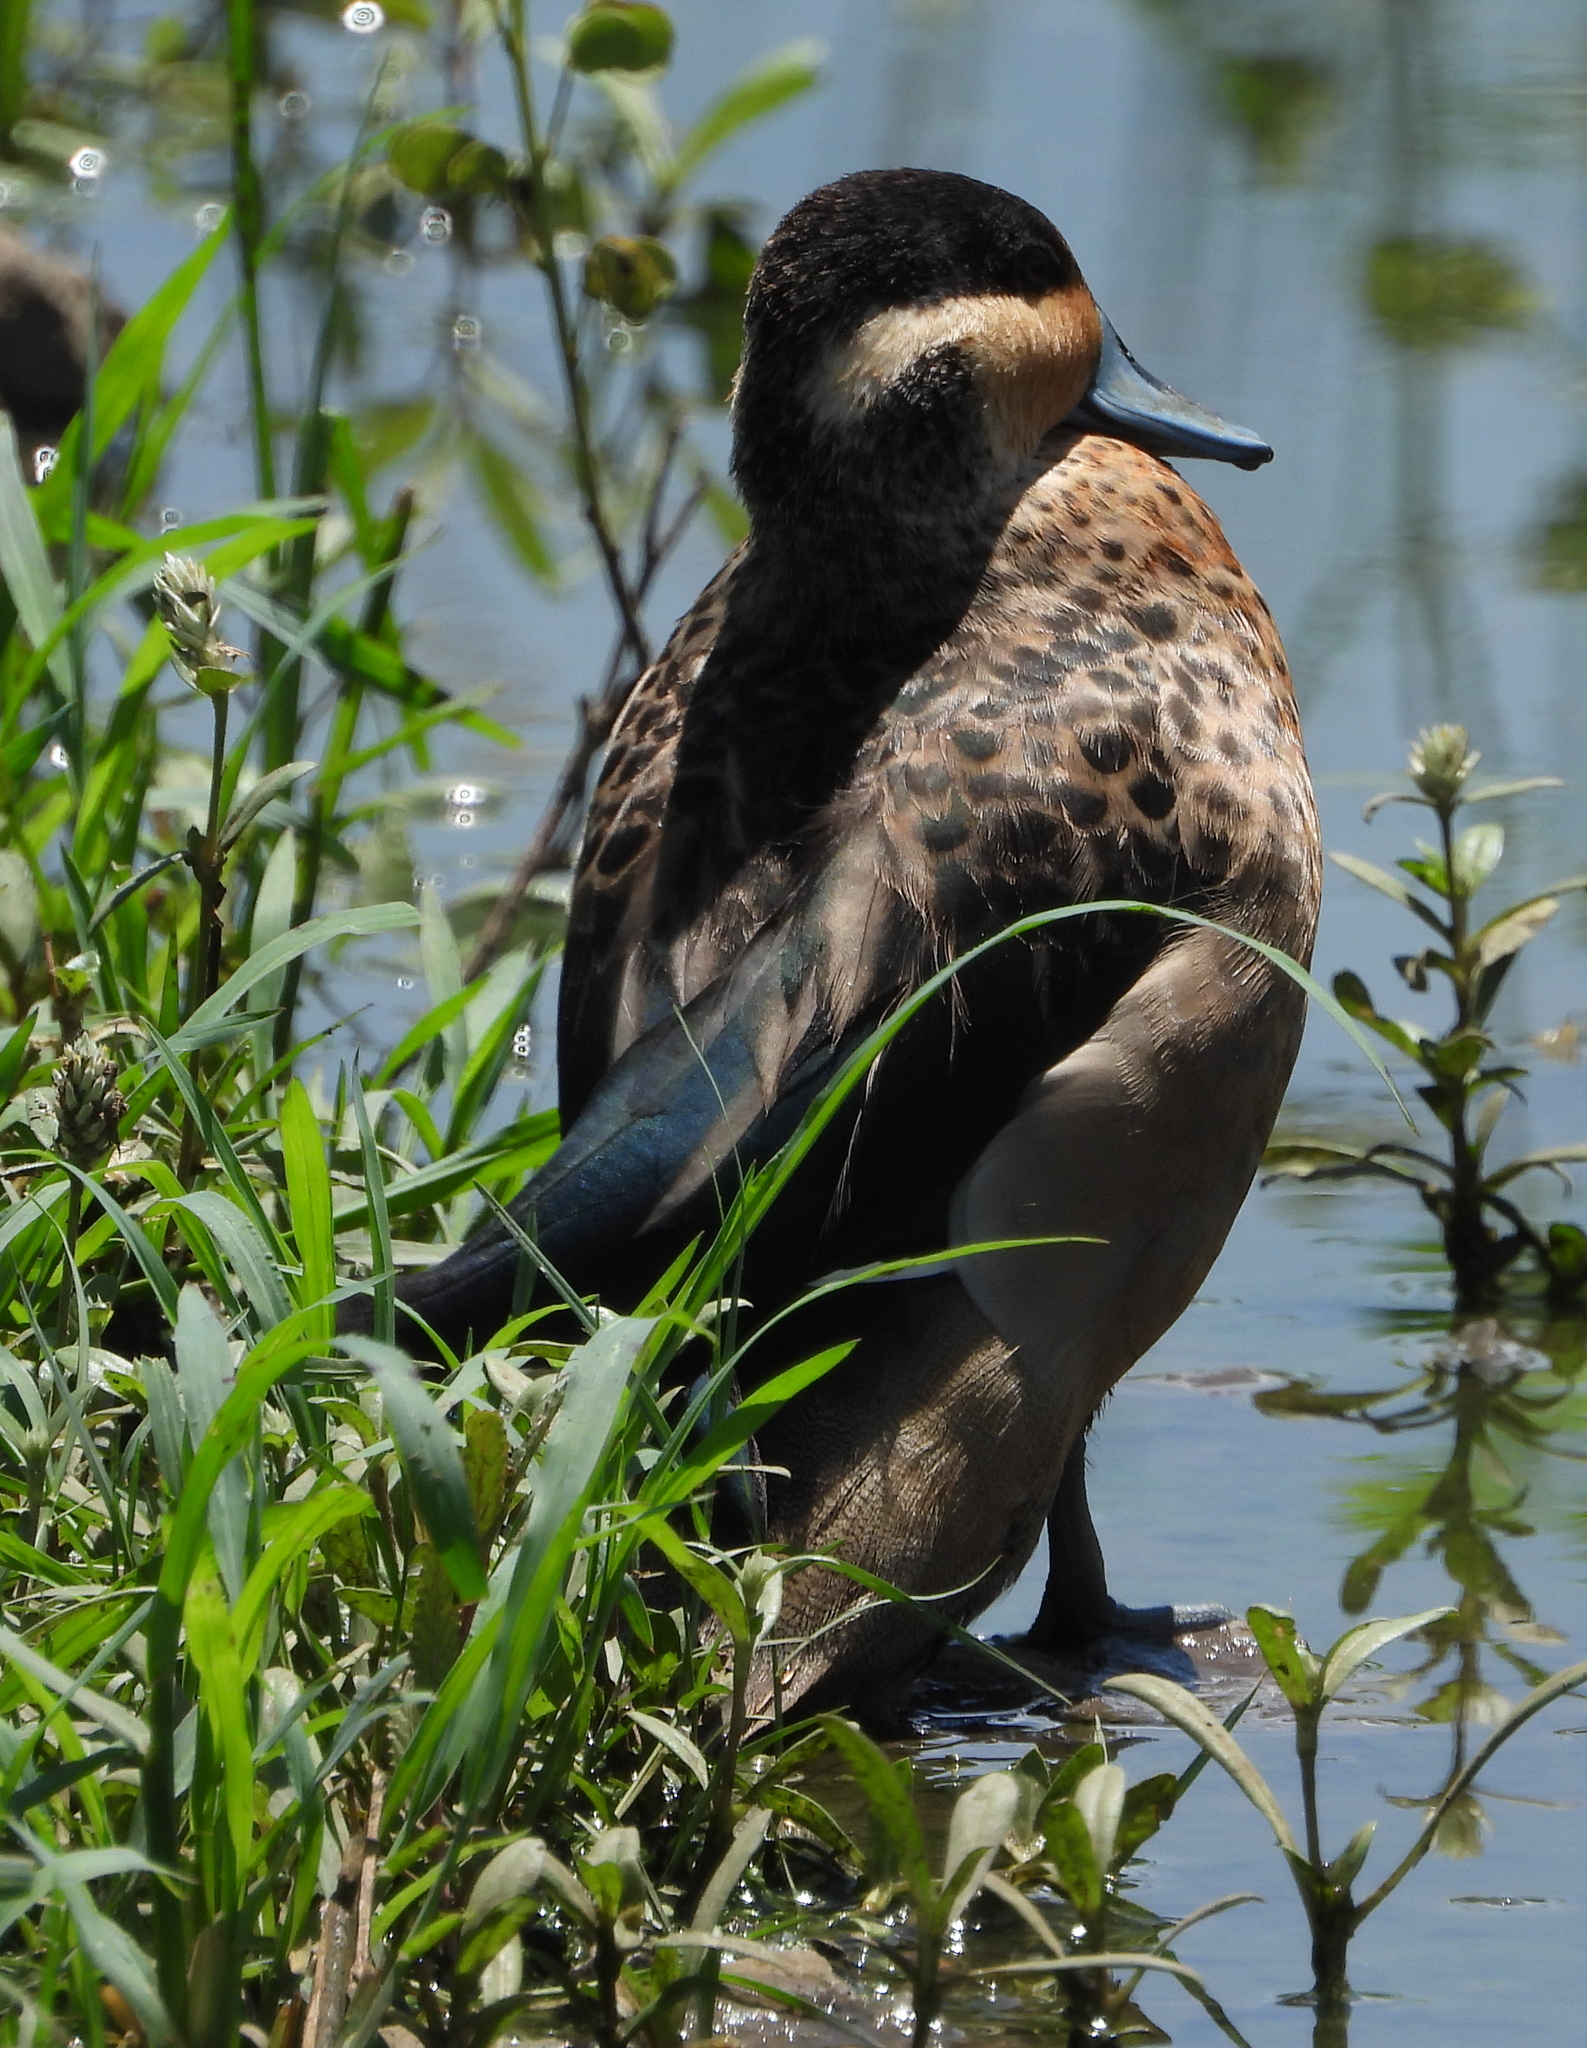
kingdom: Animalia
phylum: Chordata
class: Aves
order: Anseriformes
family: Anatidae
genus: Spatula
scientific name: Spatula hottentota
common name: Blue-billed teal
